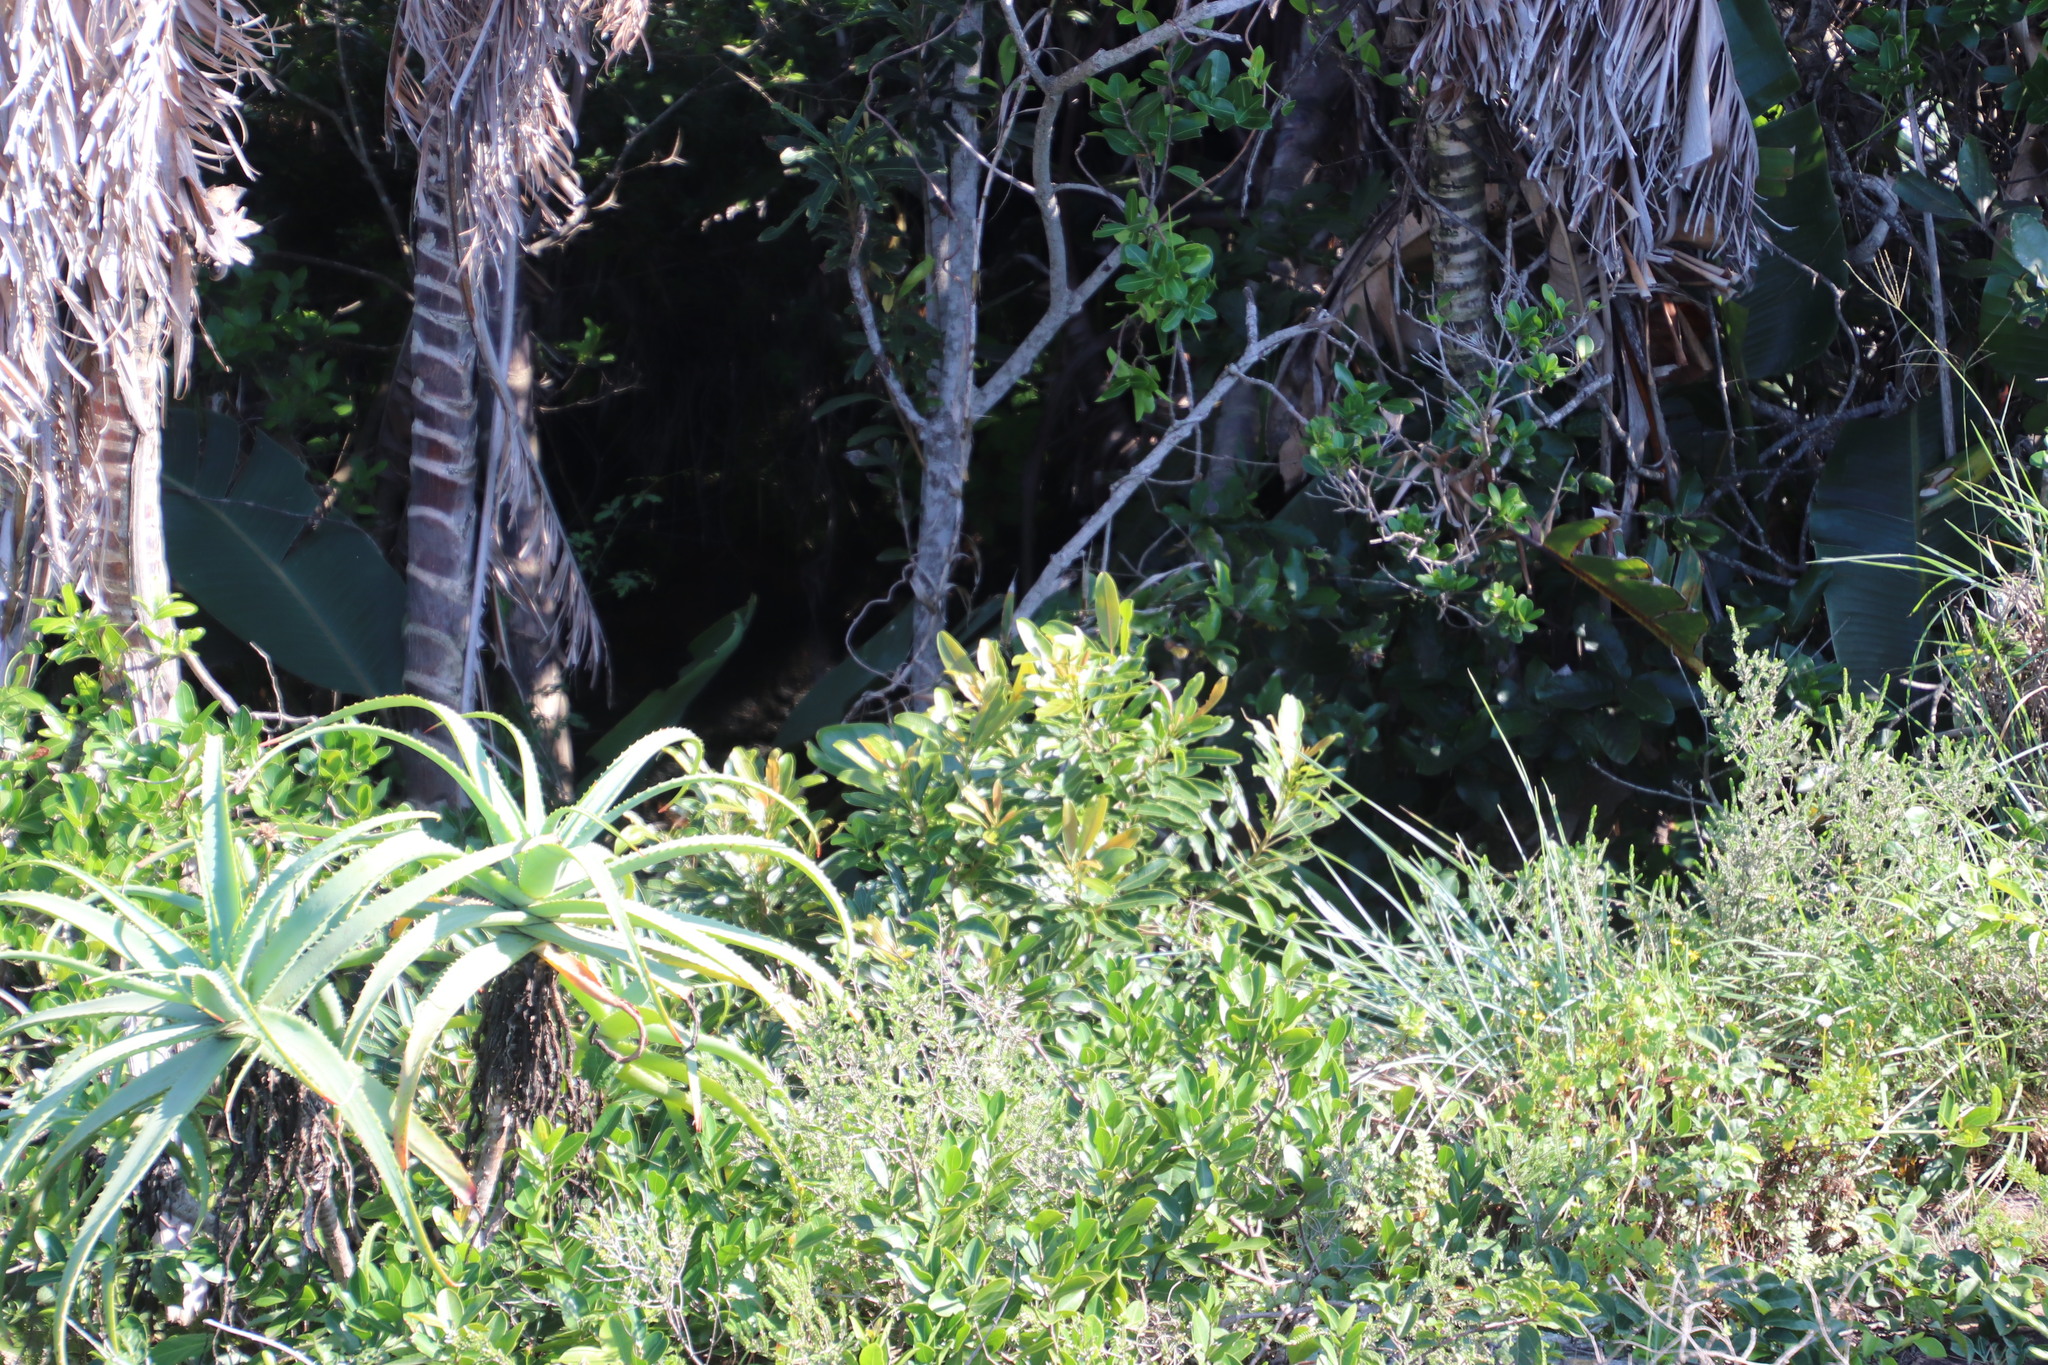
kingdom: Plantae
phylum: Tracheophyta
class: Magnoliopsida
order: Sapindales
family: Anacardiaceae
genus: Protorhus
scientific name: Protorhus longifolia
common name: Red-beech
